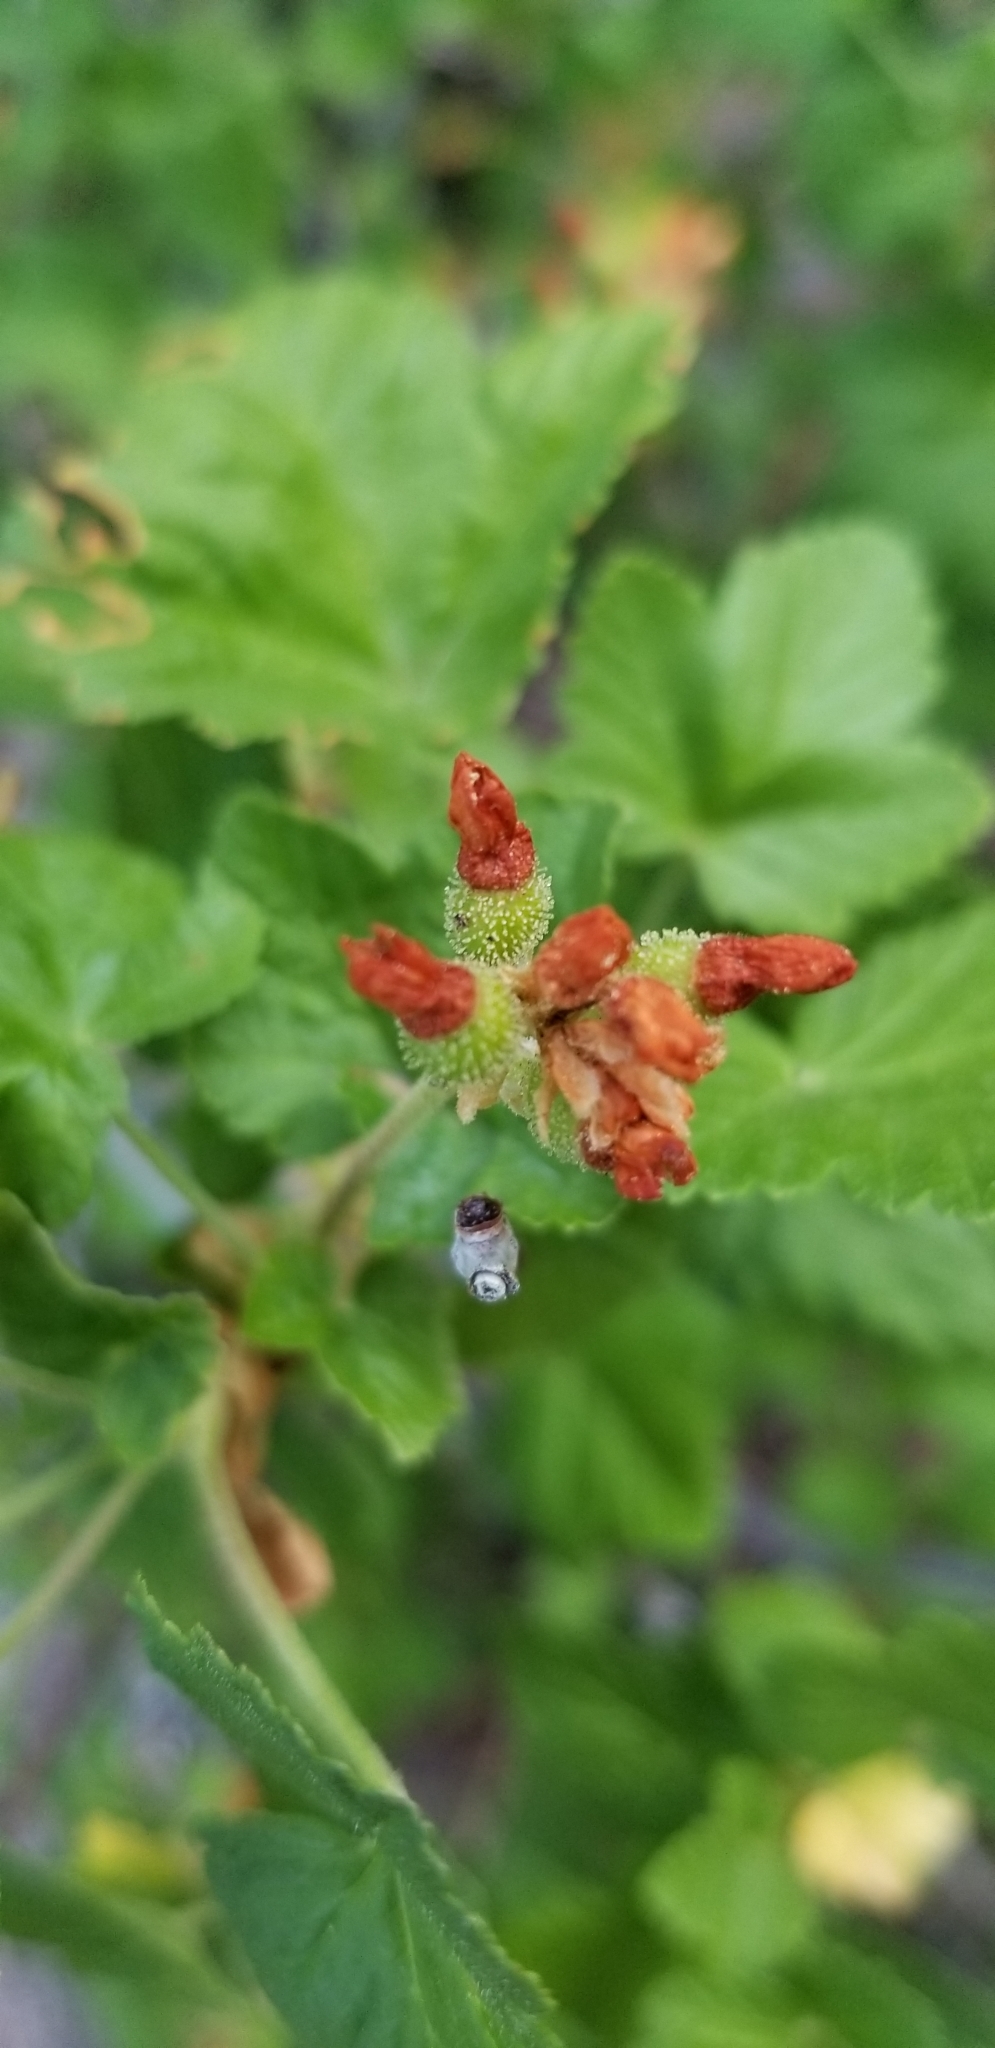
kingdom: Plantae
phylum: Tracheophyta
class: Magnoliopsida
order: Saxifragales
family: Grossulariaceae
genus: Ribes
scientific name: Ribes nevadense
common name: Mountain pink currant
